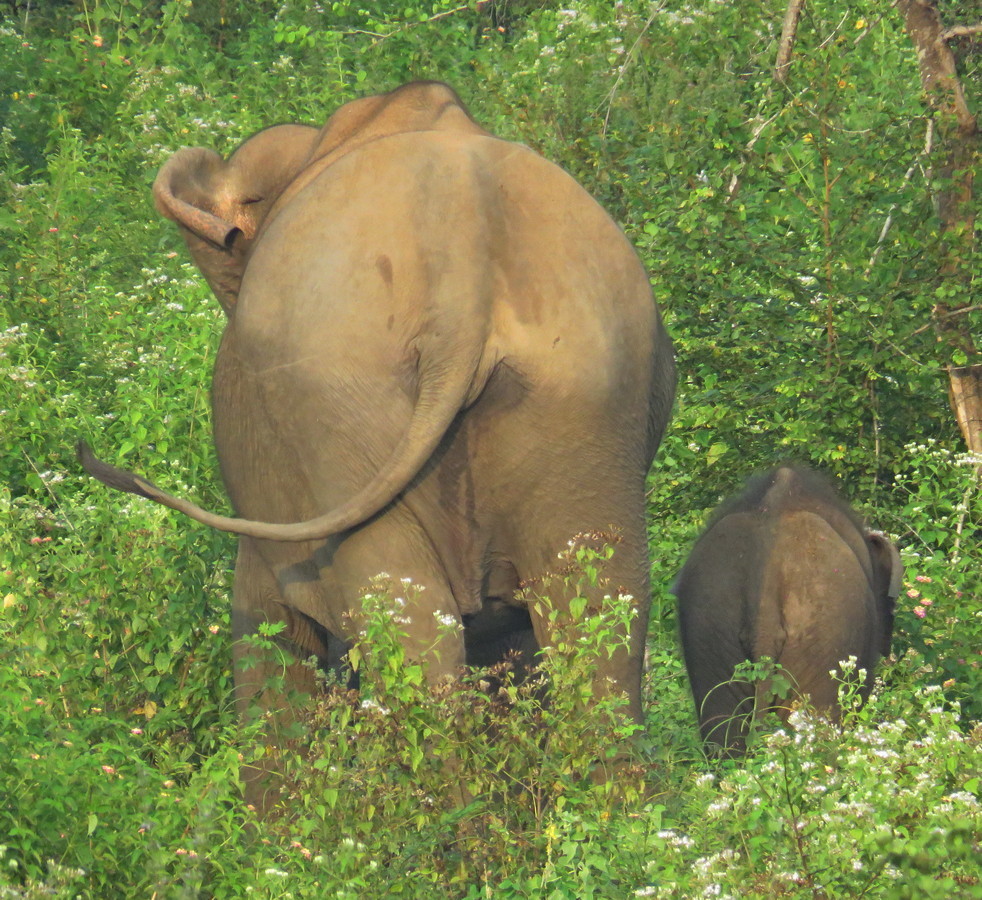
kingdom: Animalia
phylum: Chordata
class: Mammalia
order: Proboscidea
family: Elephantidae
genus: Elephas
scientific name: Elephas maximus
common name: Asian elephant
